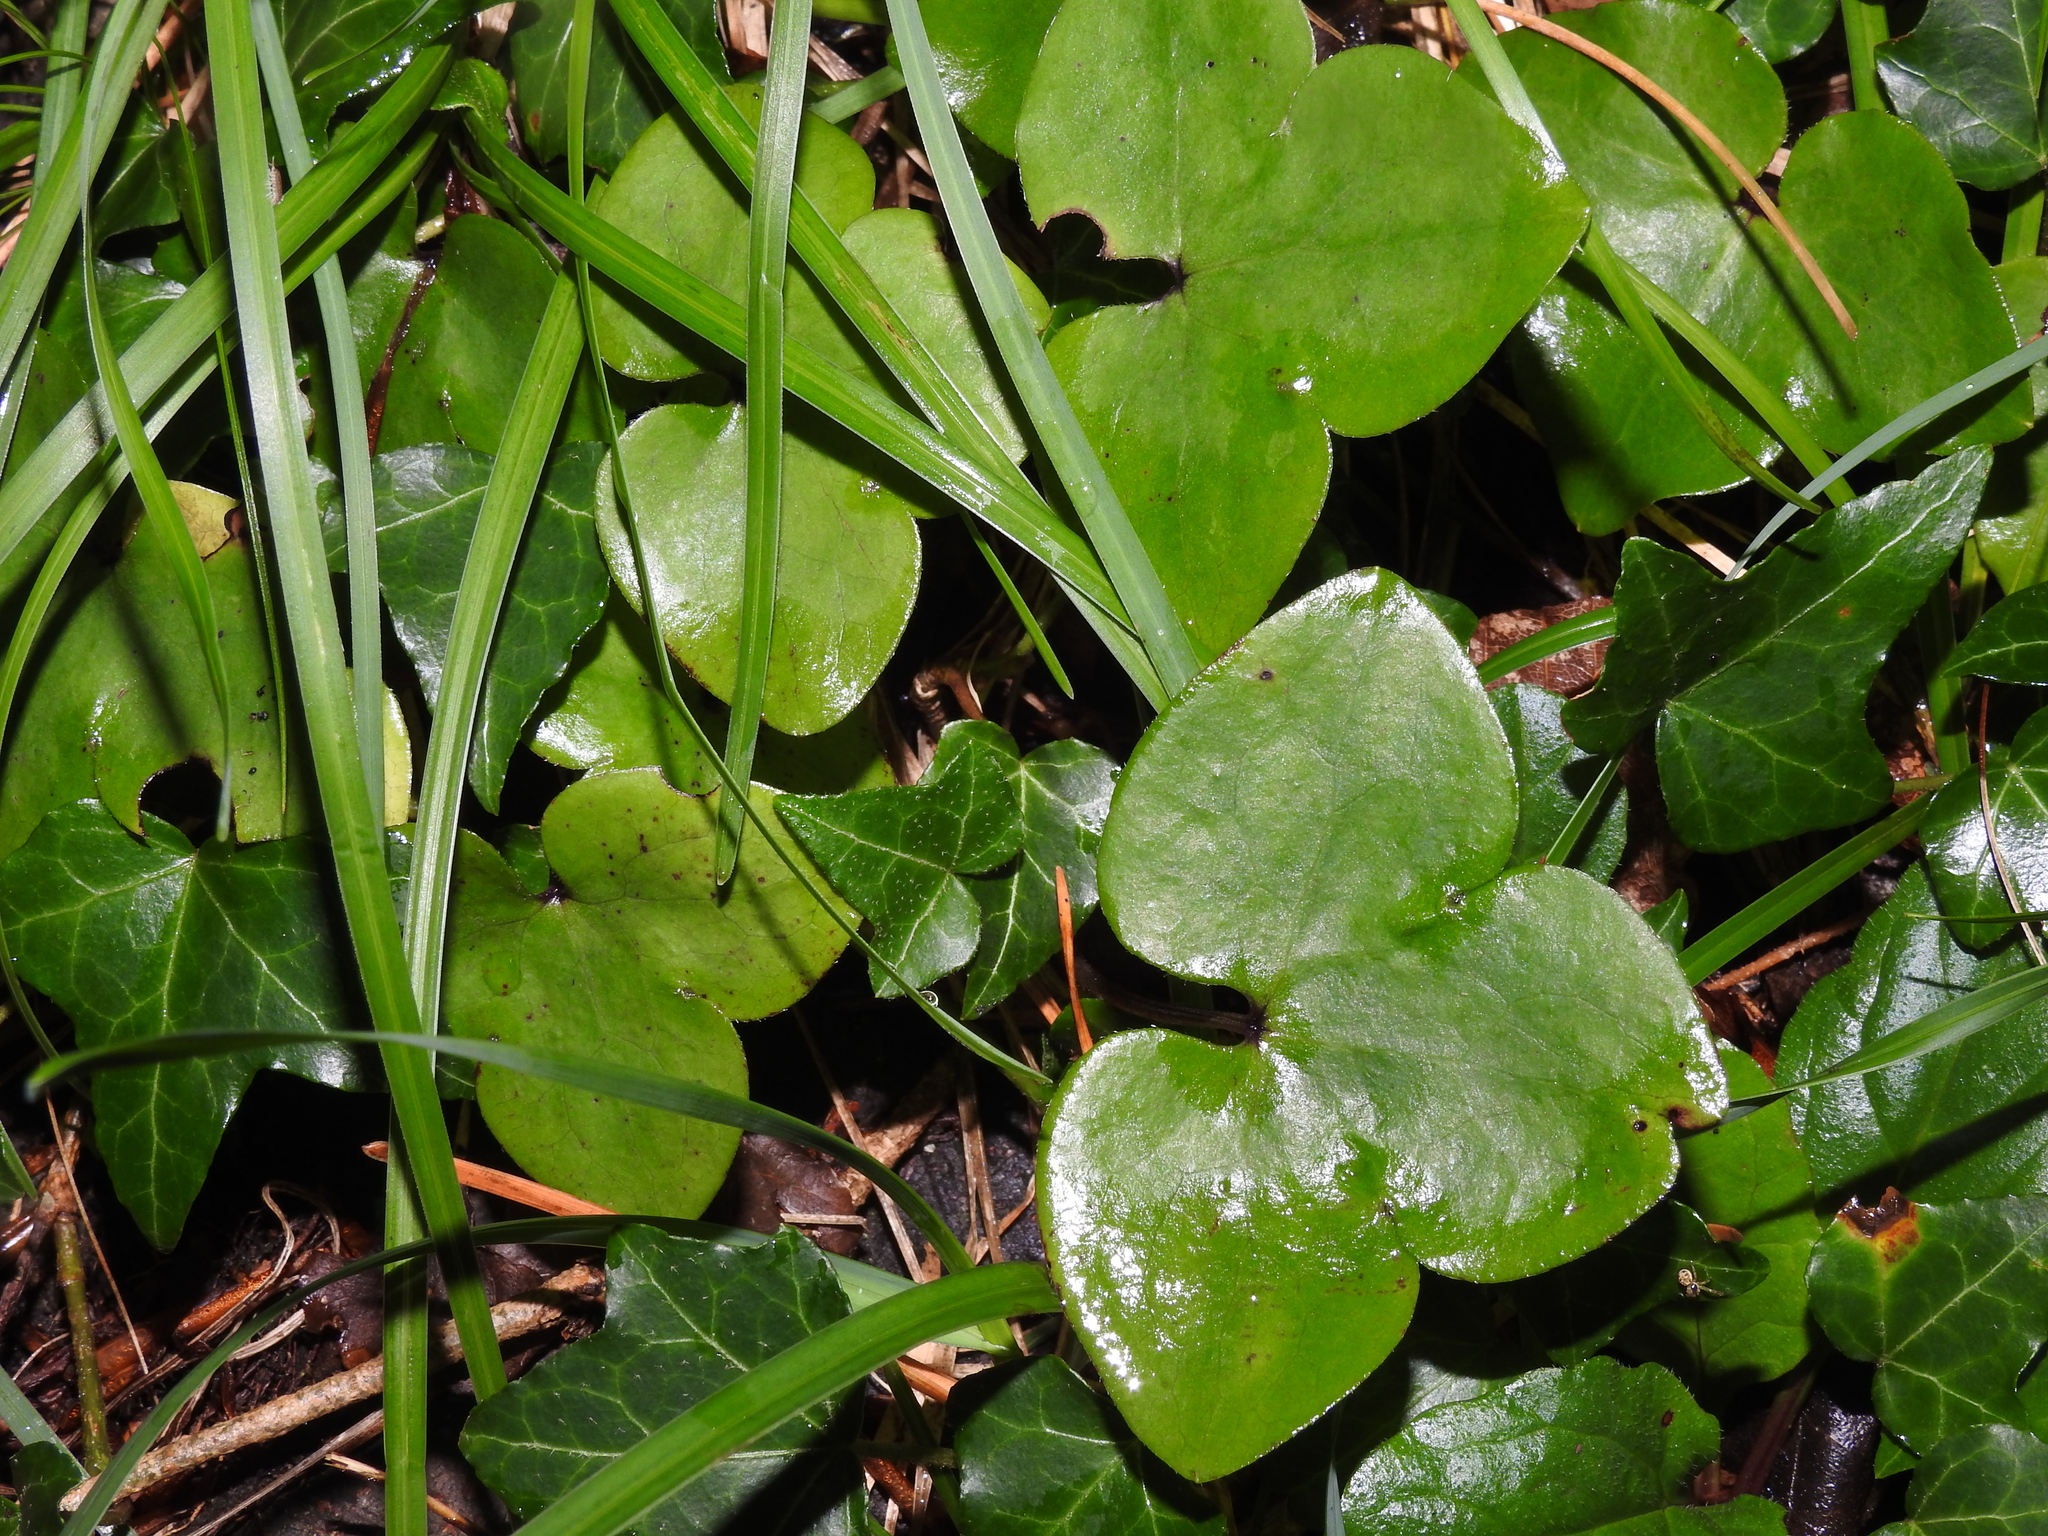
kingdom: Plantae
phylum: Tracheophyta
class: Magnoliopsida
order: Ranunculales
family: Ranunculaceae
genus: Hepatica
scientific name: Hepatica nobilis
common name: Liverleaf
